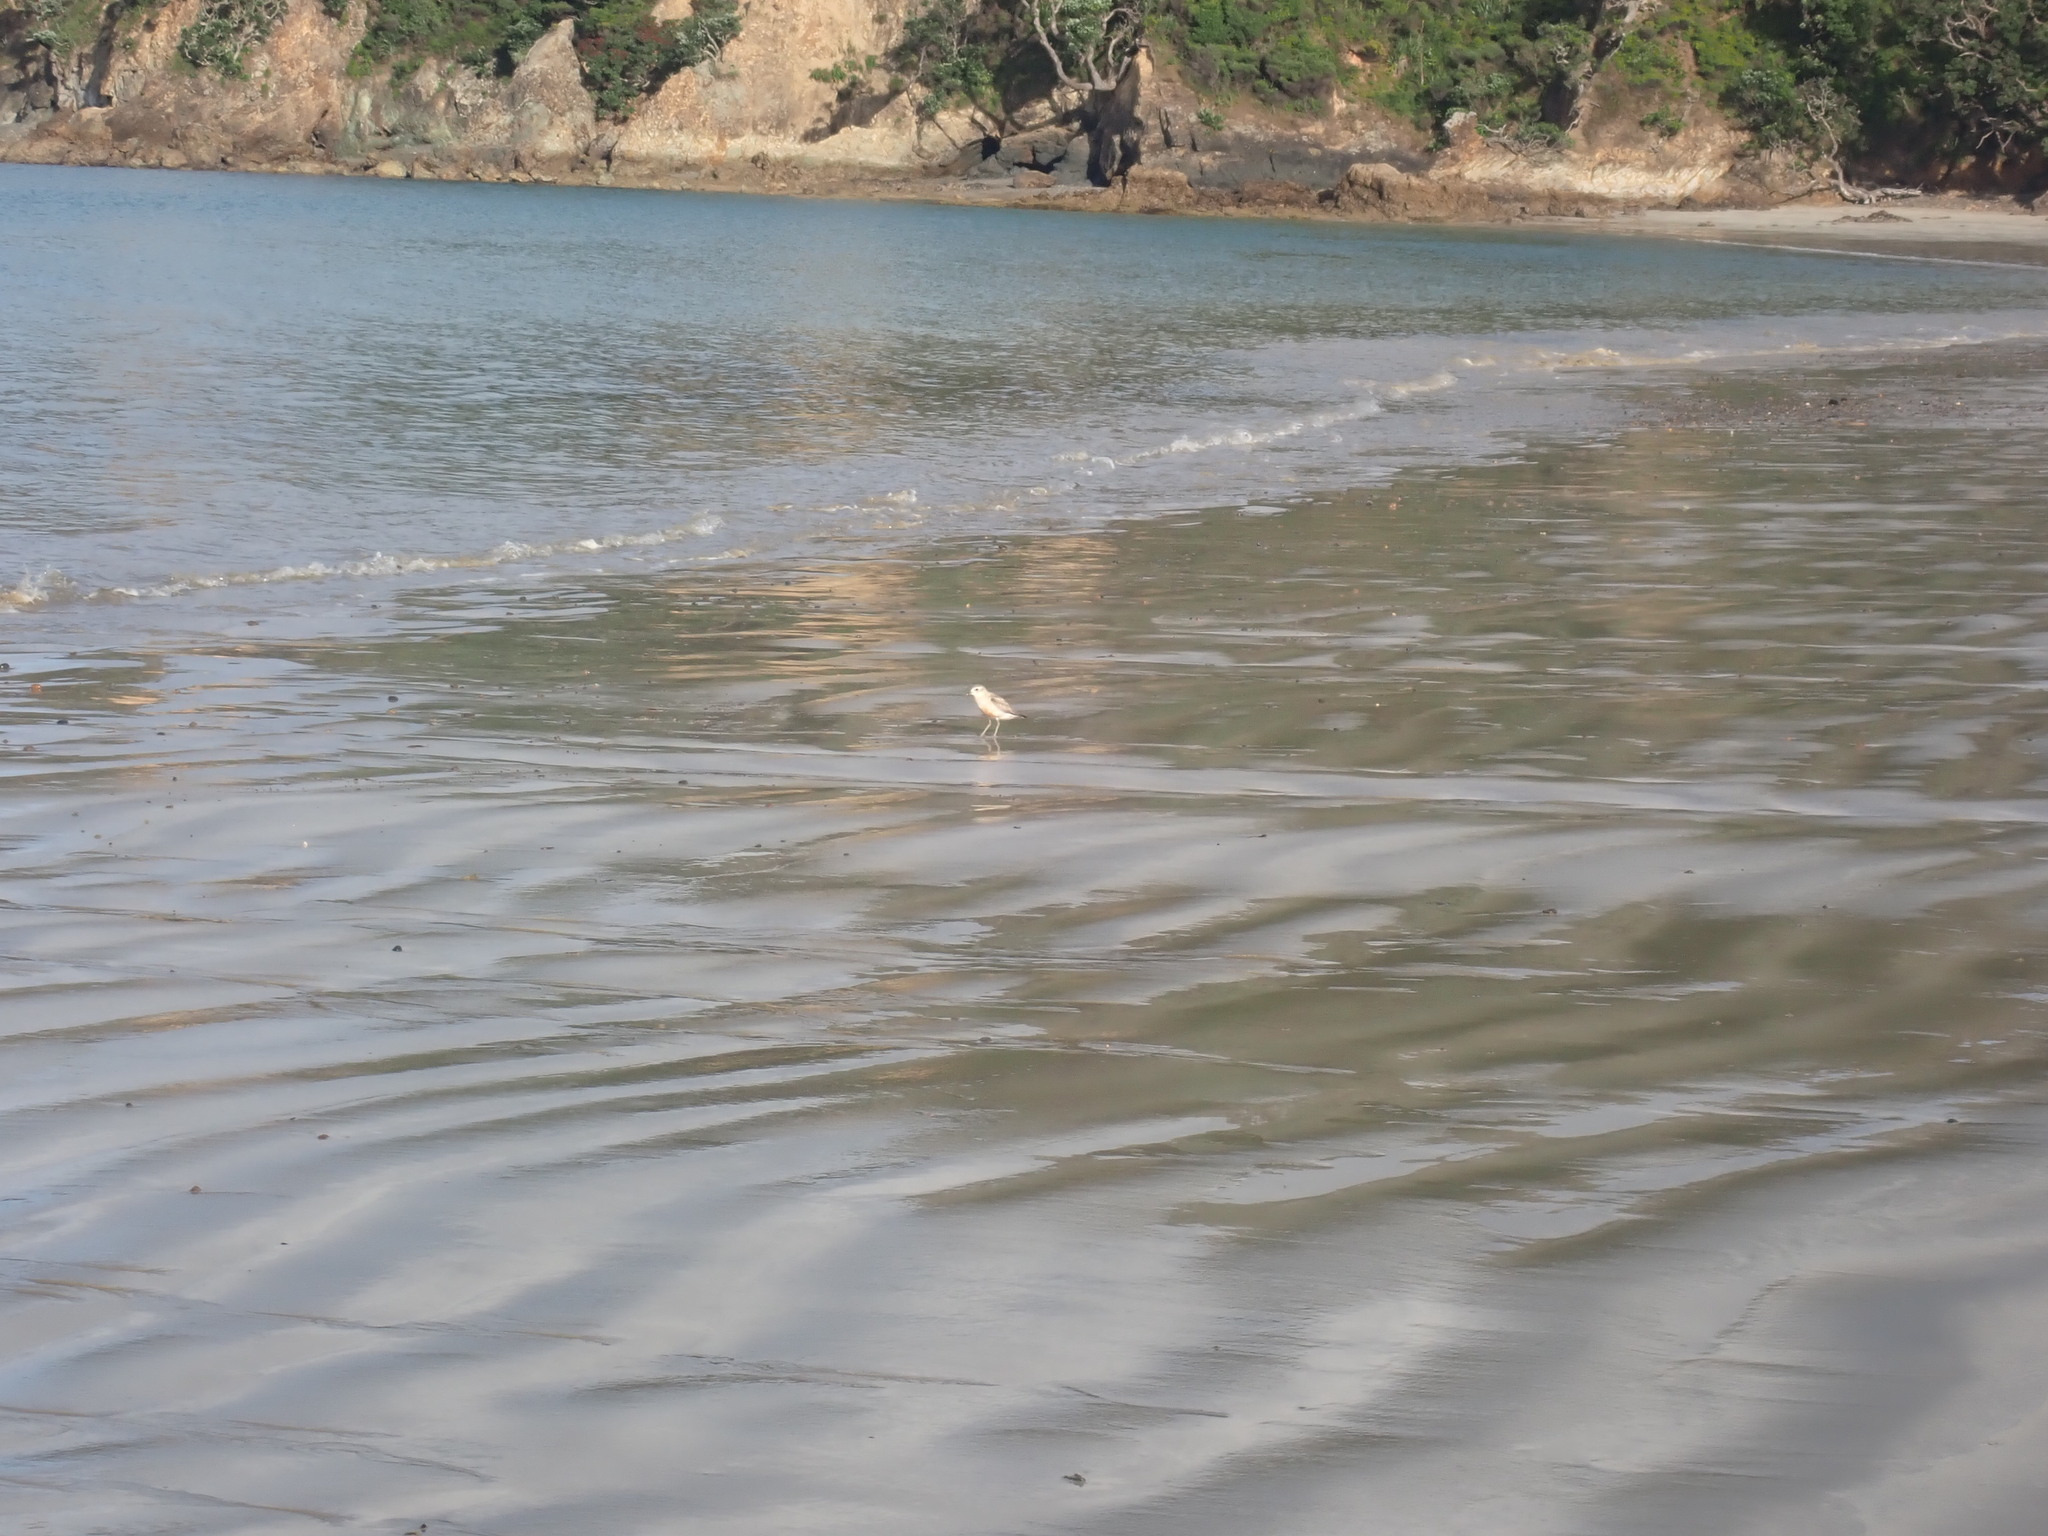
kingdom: Animalia
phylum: Chordata
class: Aves
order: Charadriiformes
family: Charadriidae
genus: Anarhynchus
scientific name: Anarhynchus
